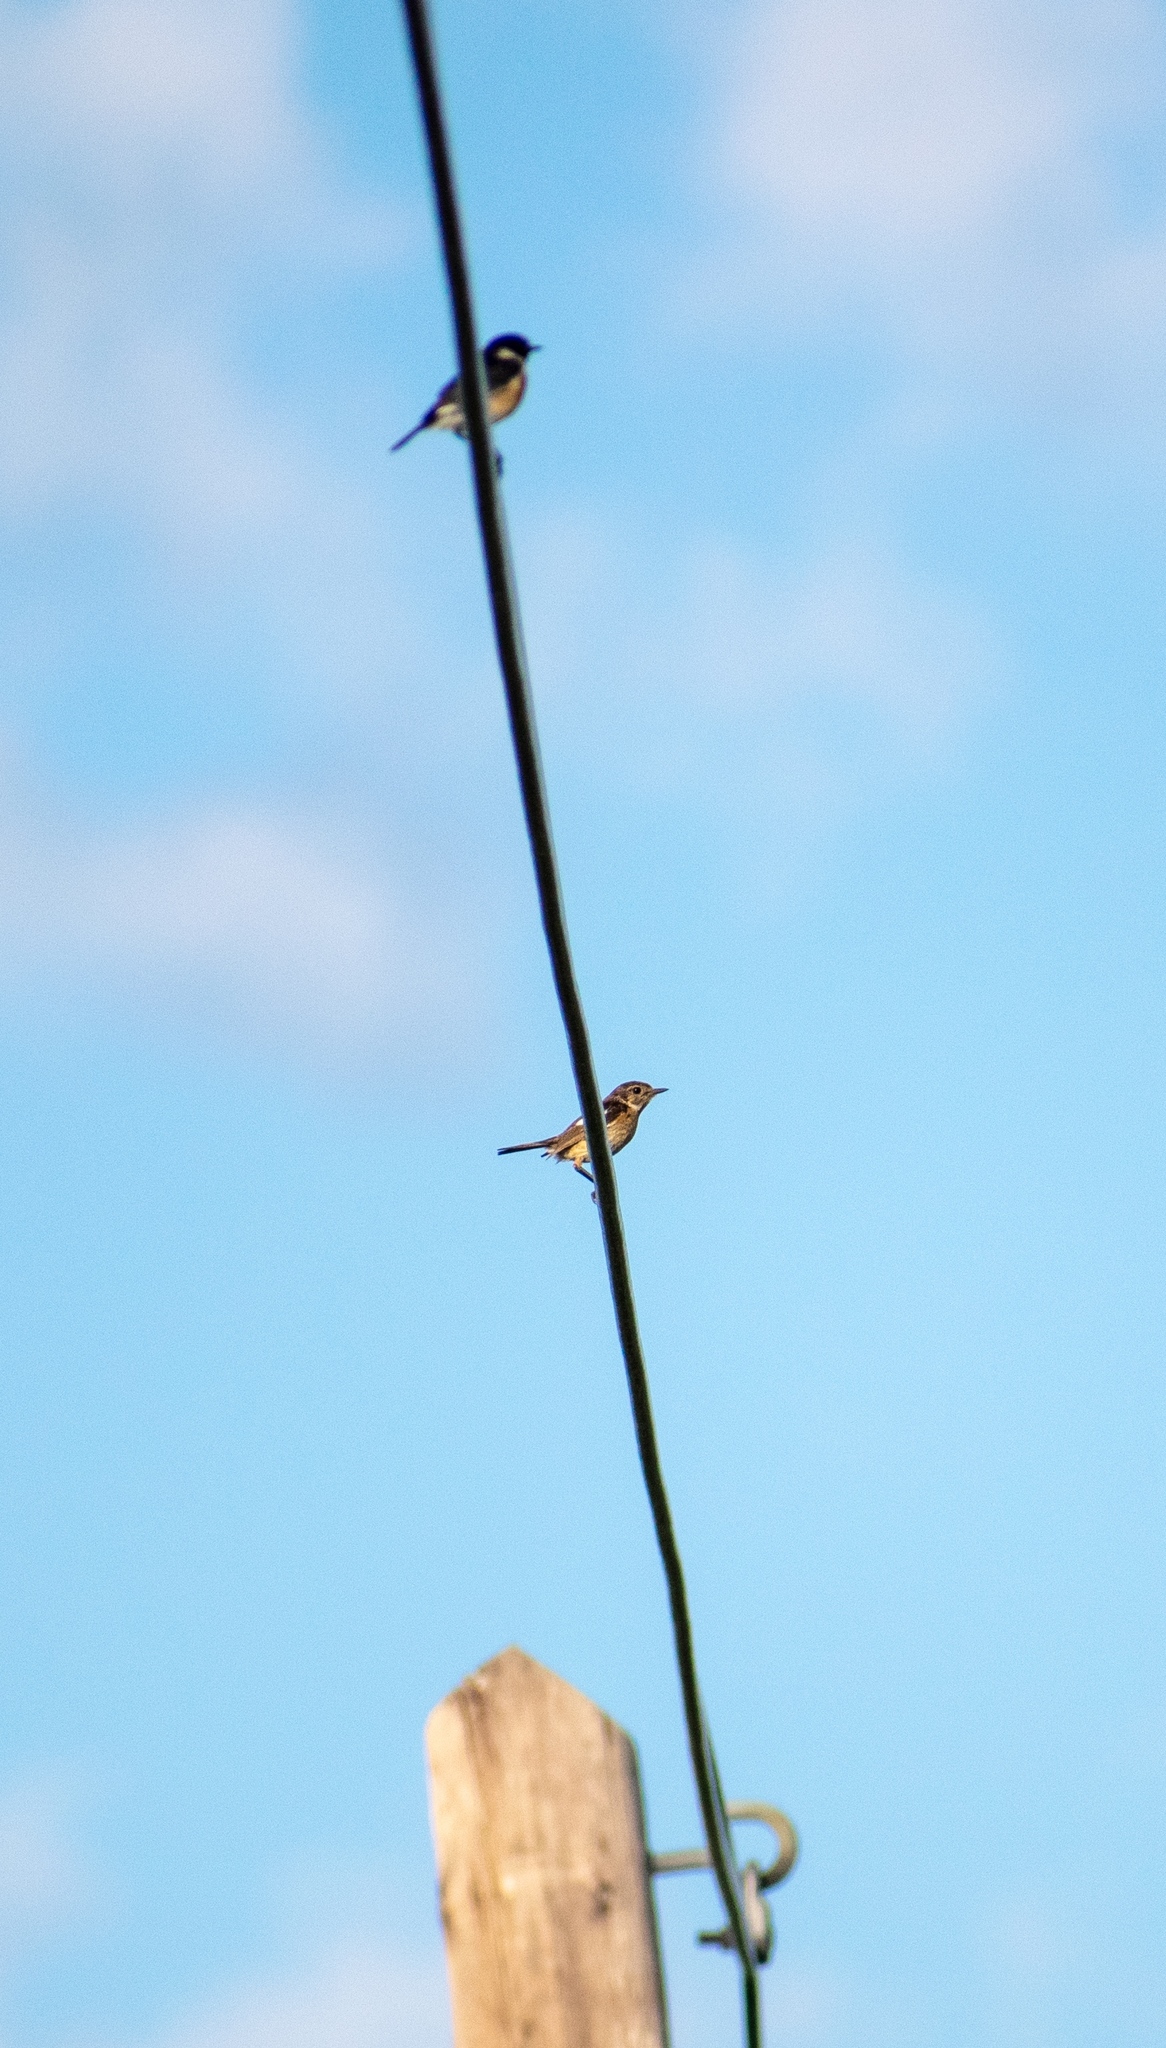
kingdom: Animalia
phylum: Chordata
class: Aves
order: Passeriformes
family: Muscicapidae
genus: Saxicola
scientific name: Saxicola rubicola
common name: European stonechat
